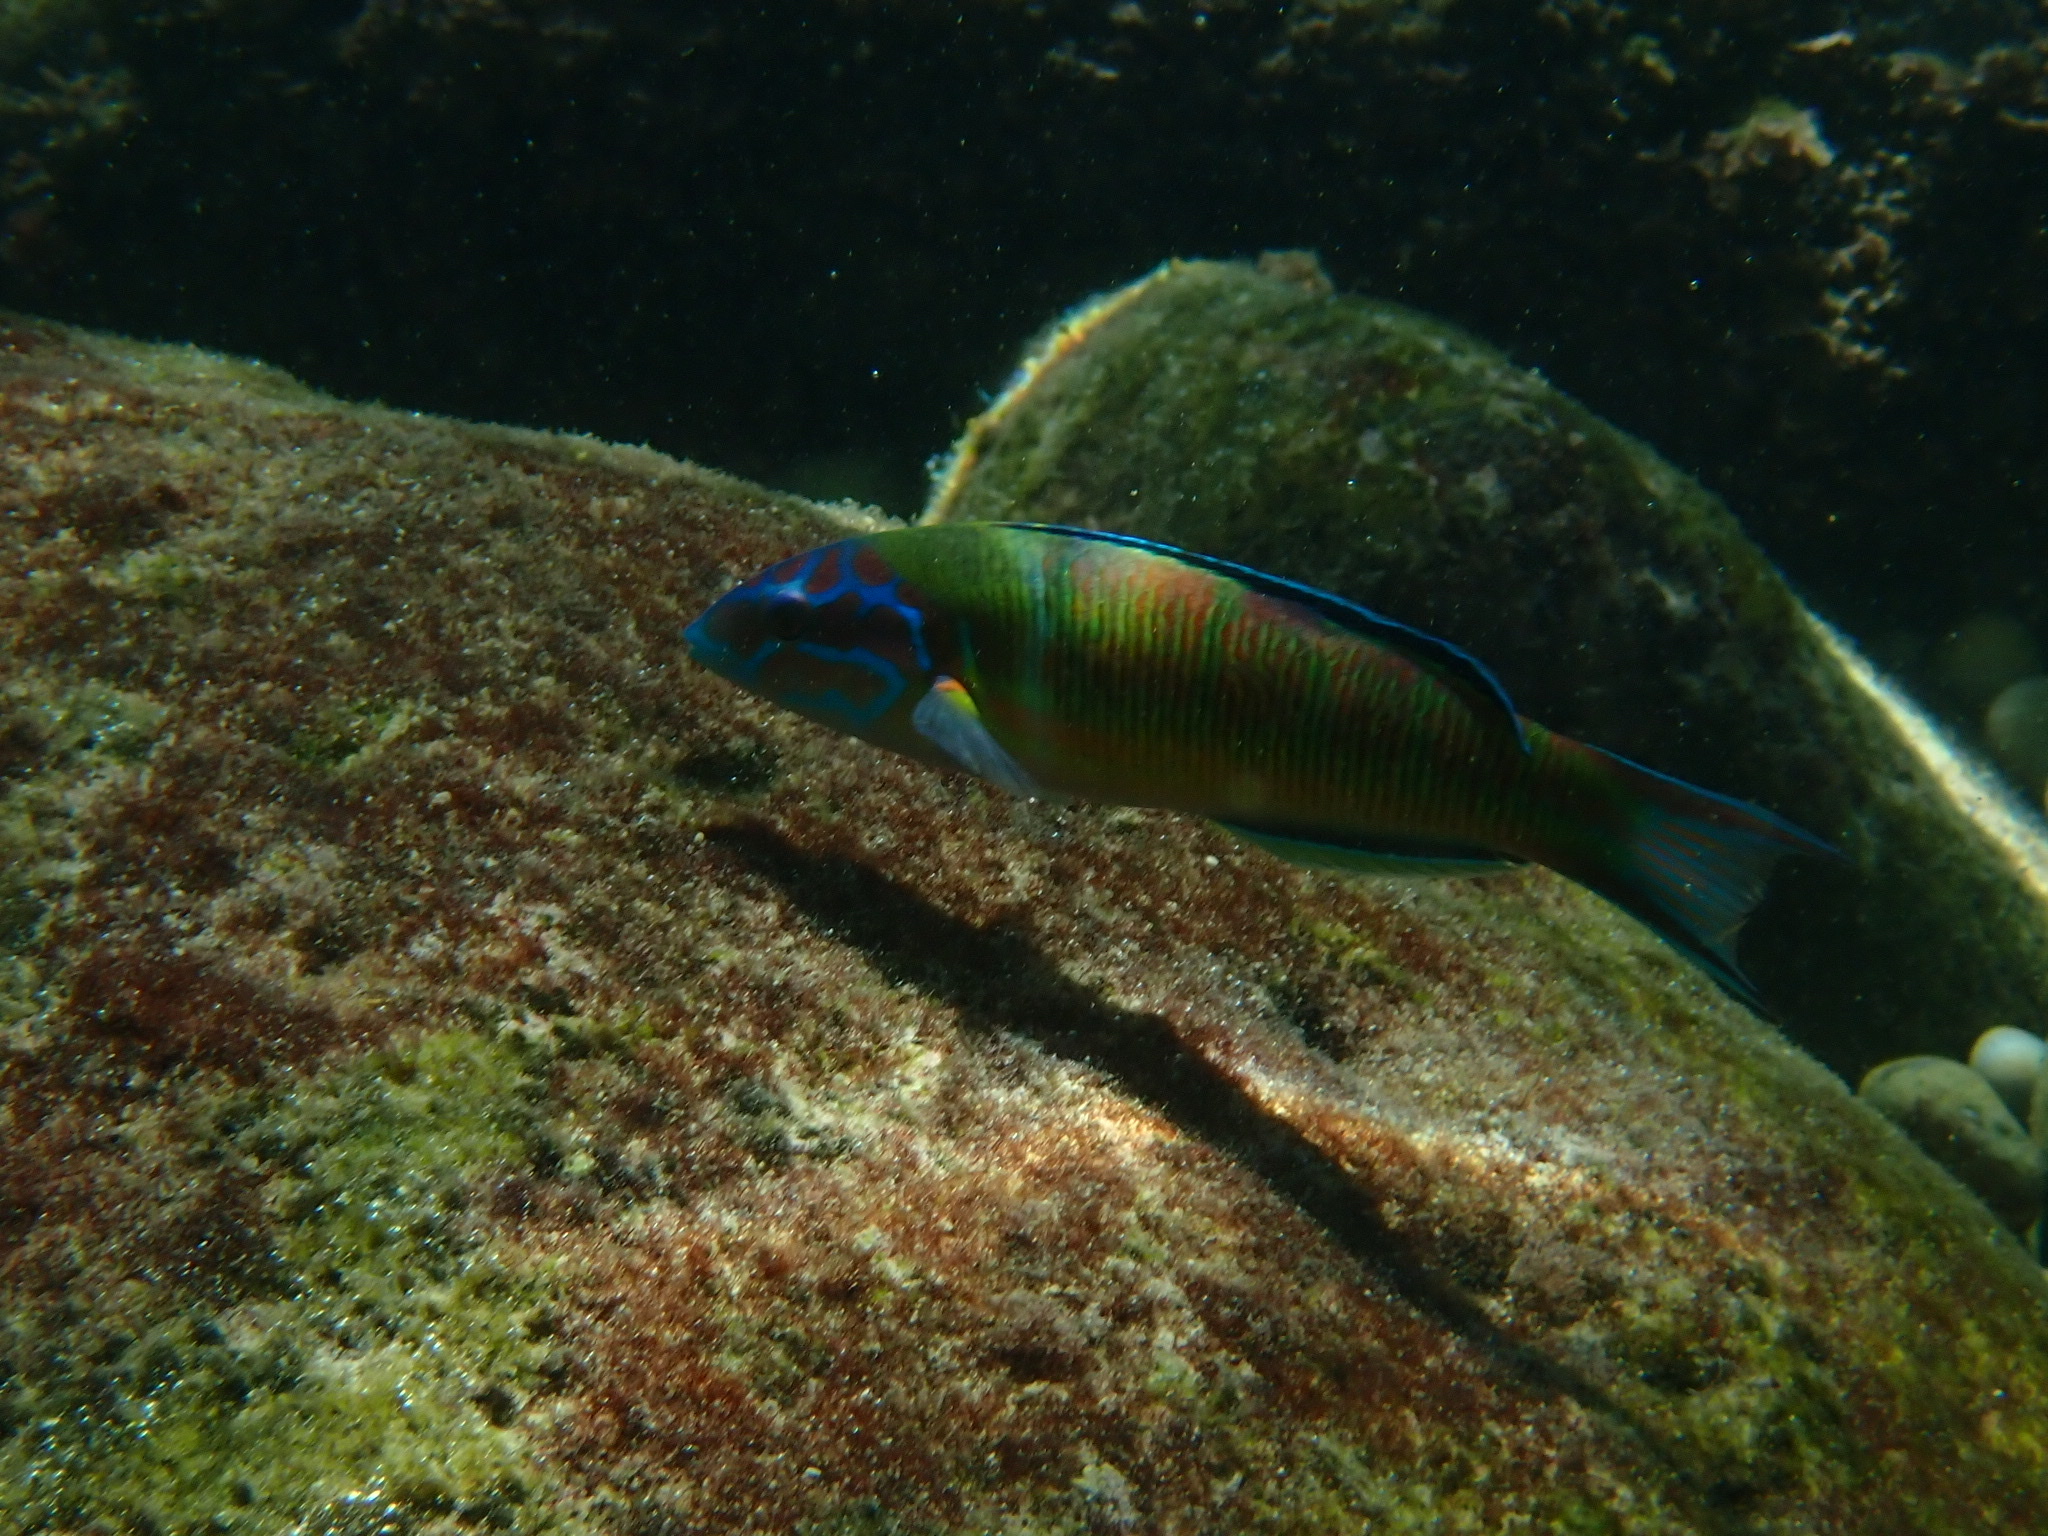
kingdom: Animalia
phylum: Chordata
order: Perciformes
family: Labridae
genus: Thalassoma
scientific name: Thalassoma pavo
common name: Ornate wrasse
